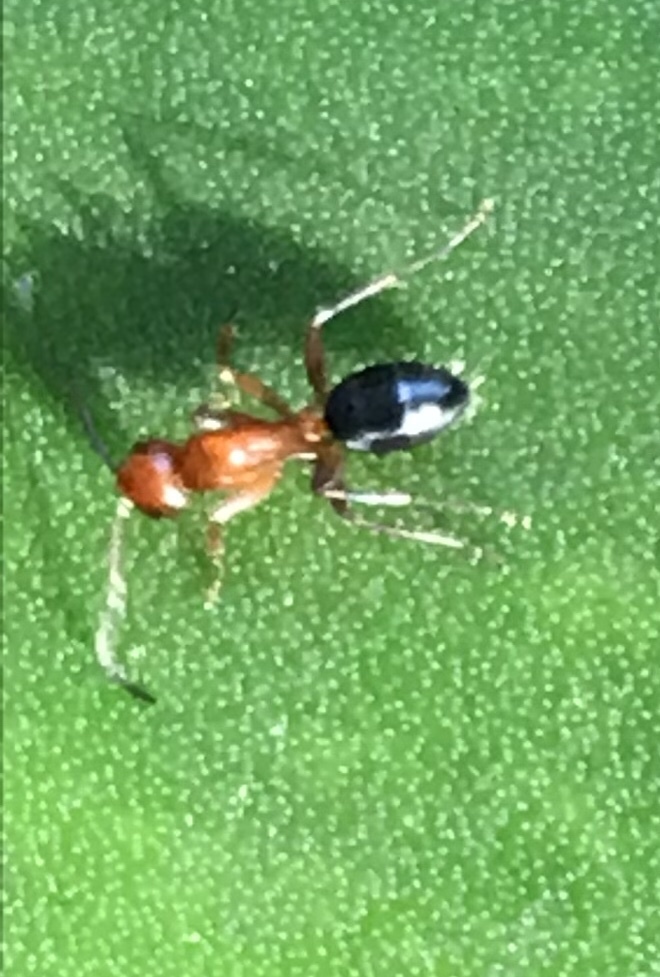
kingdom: Animalia
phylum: Arthropoda
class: Insecta
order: Hymenoptera
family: Formicidae
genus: Camponotus
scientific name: Camponotus decipiens
